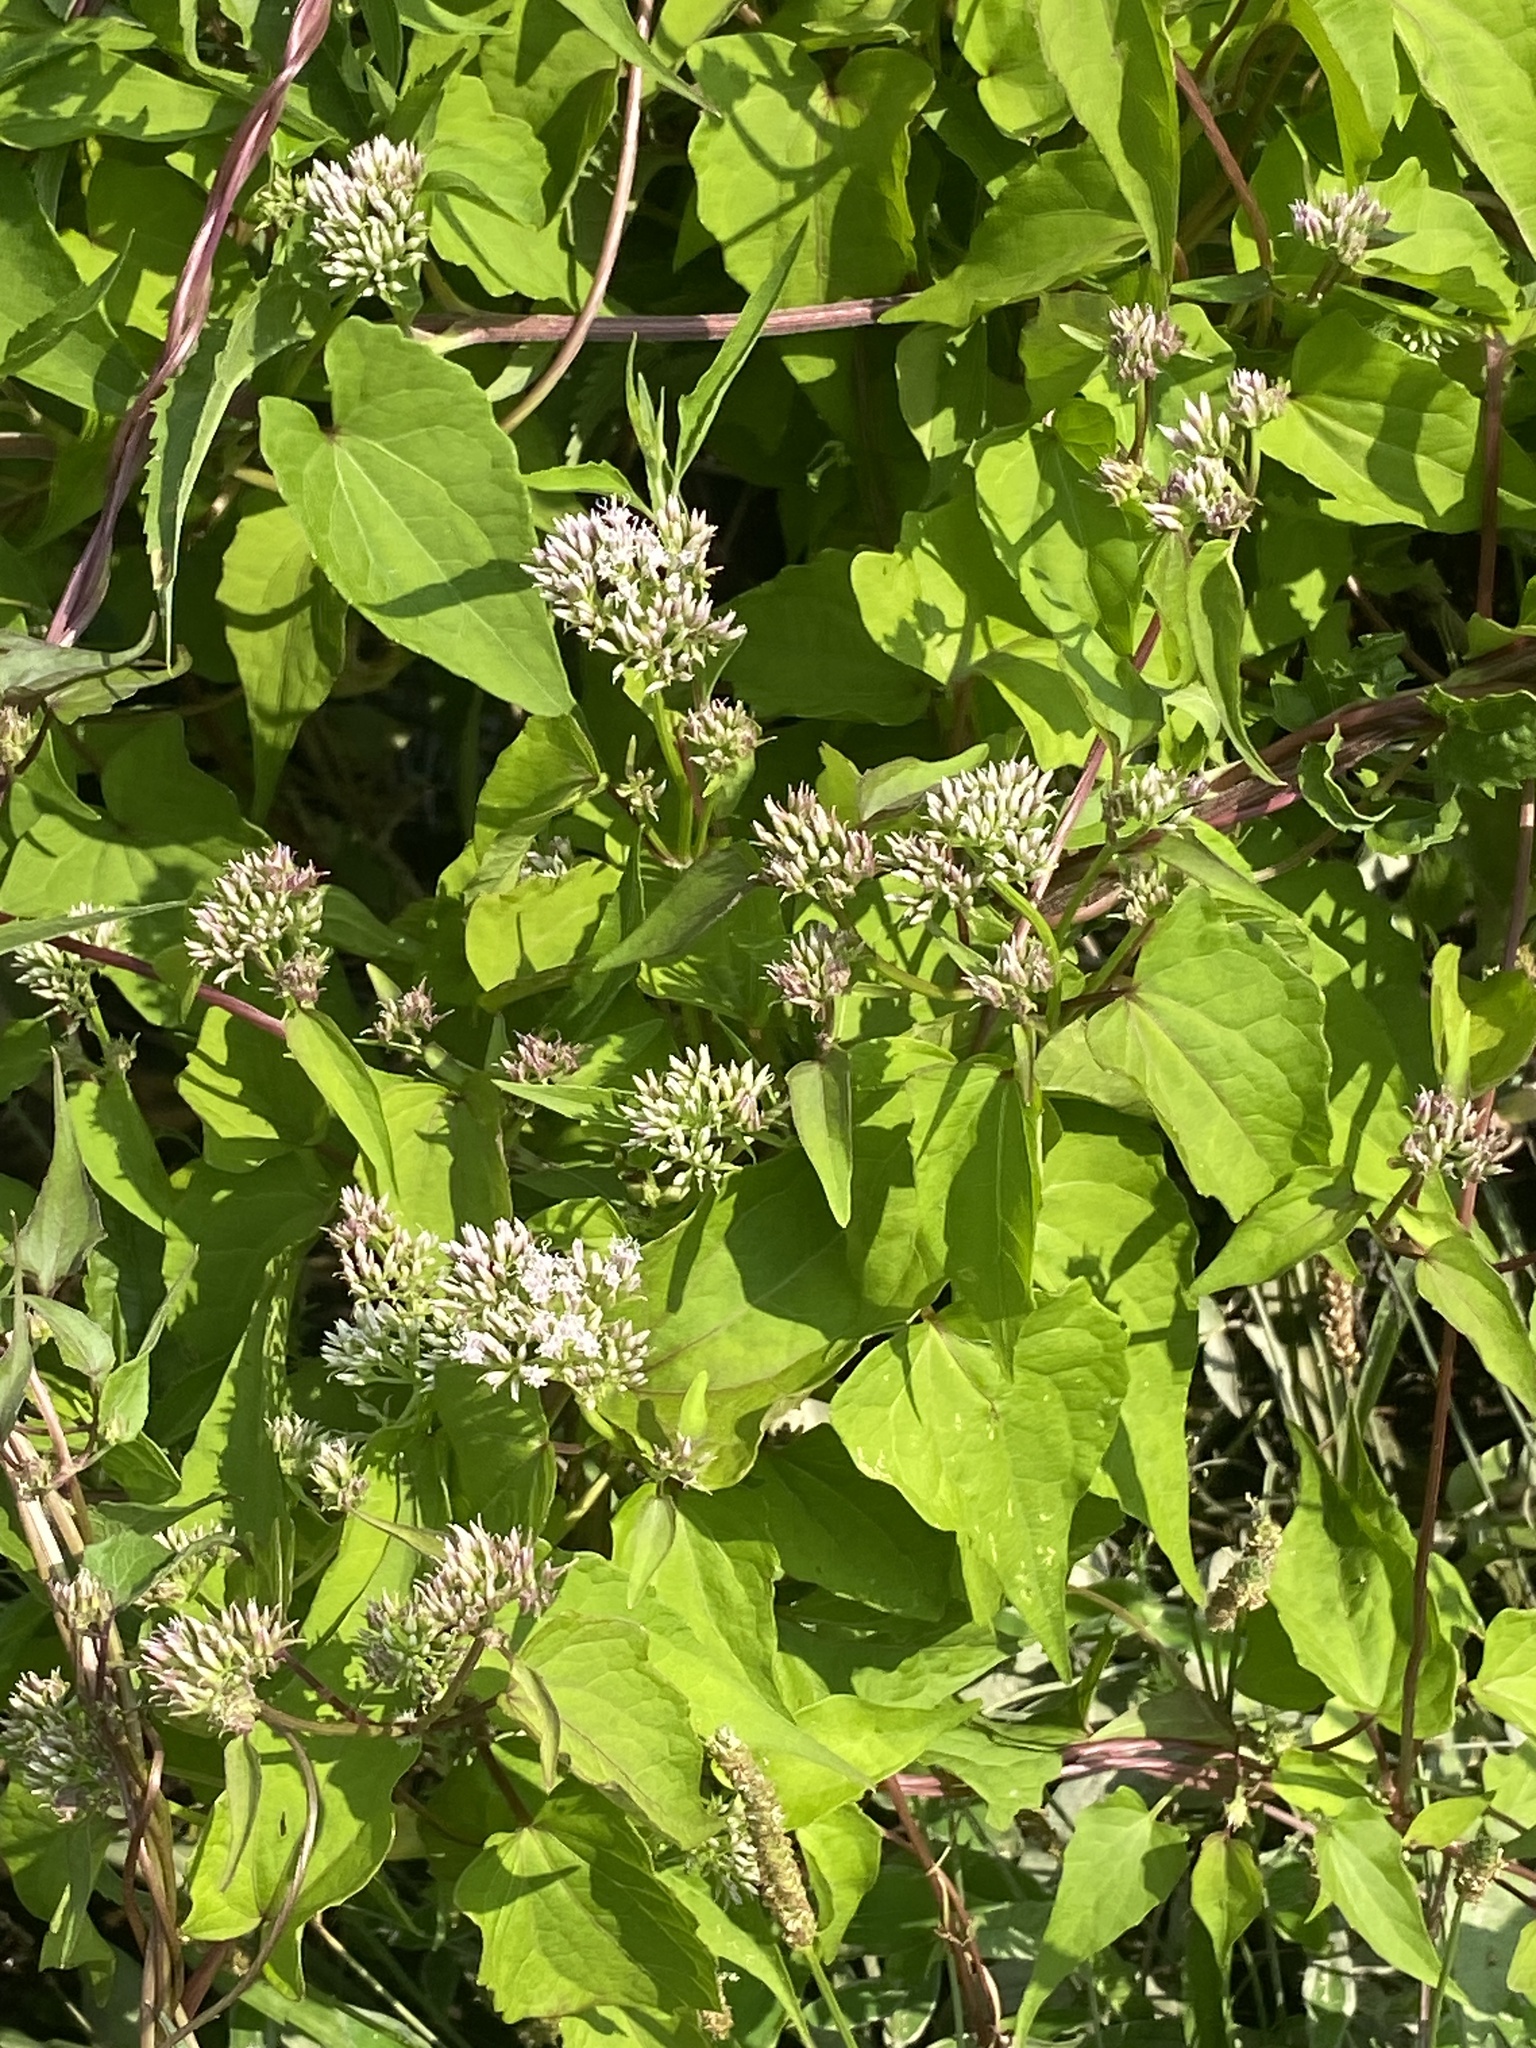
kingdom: Plantae
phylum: Tracheophyta
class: Magnoliopsida
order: Asterales
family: Asteraceae
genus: Mikania
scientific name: Mikania scandens
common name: Climbing hempvine
